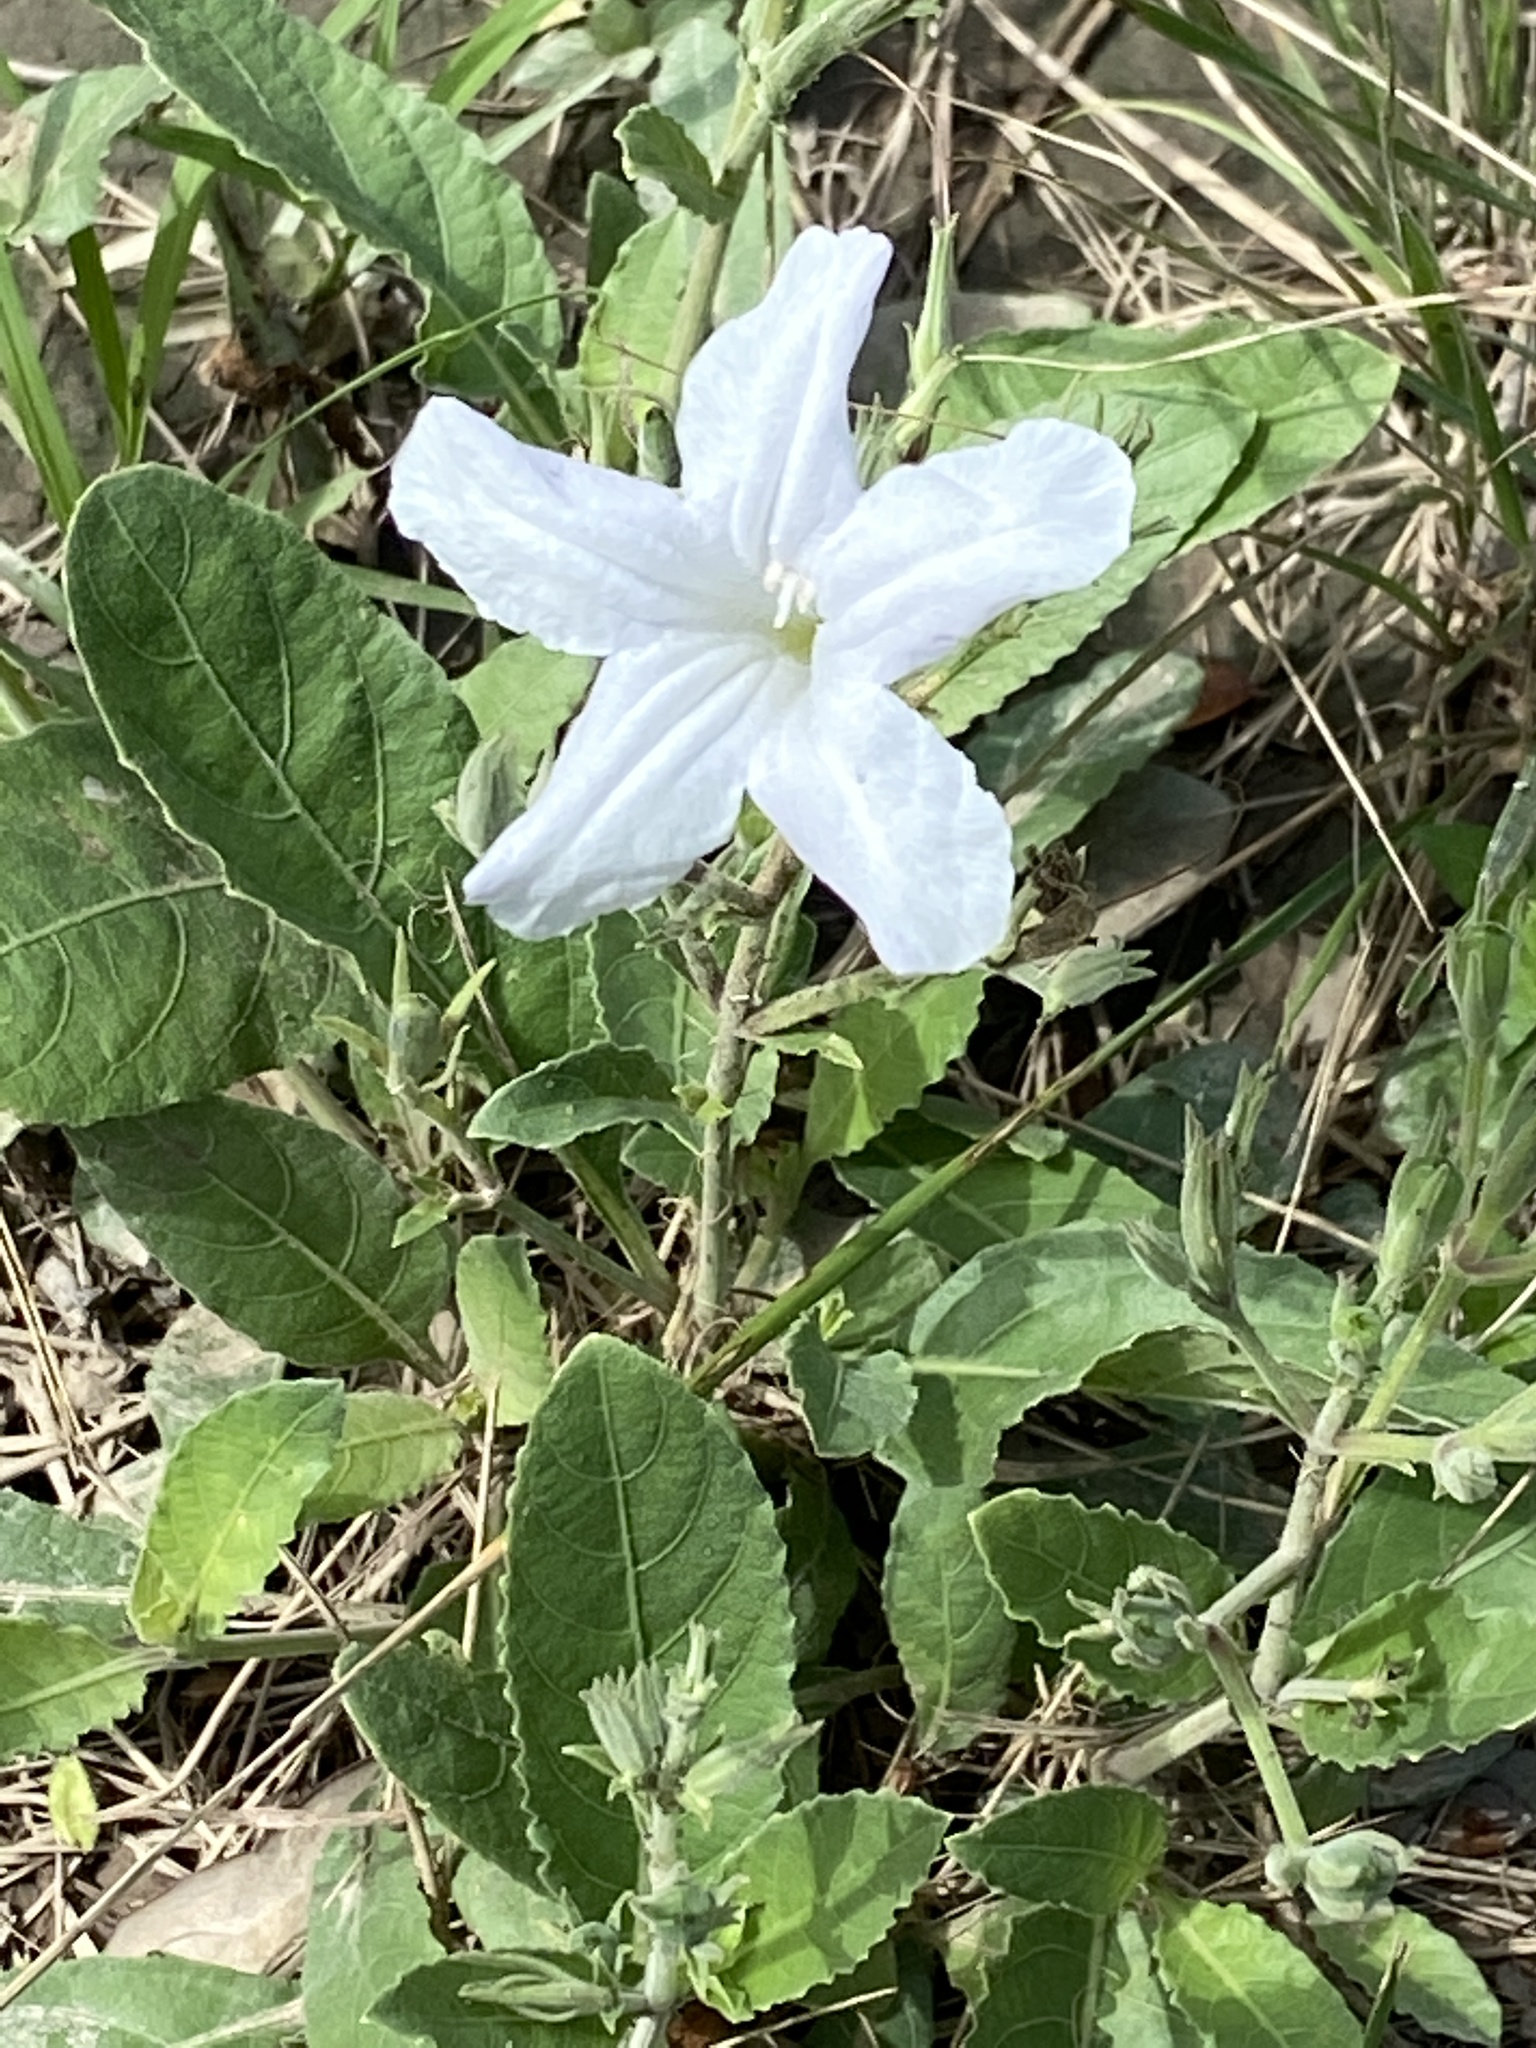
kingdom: Plantae
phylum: Tracheophyta
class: Magnoliopsida
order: Lamiales
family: Acanthaceae
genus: Ruellia
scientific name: Ruellia metziae
